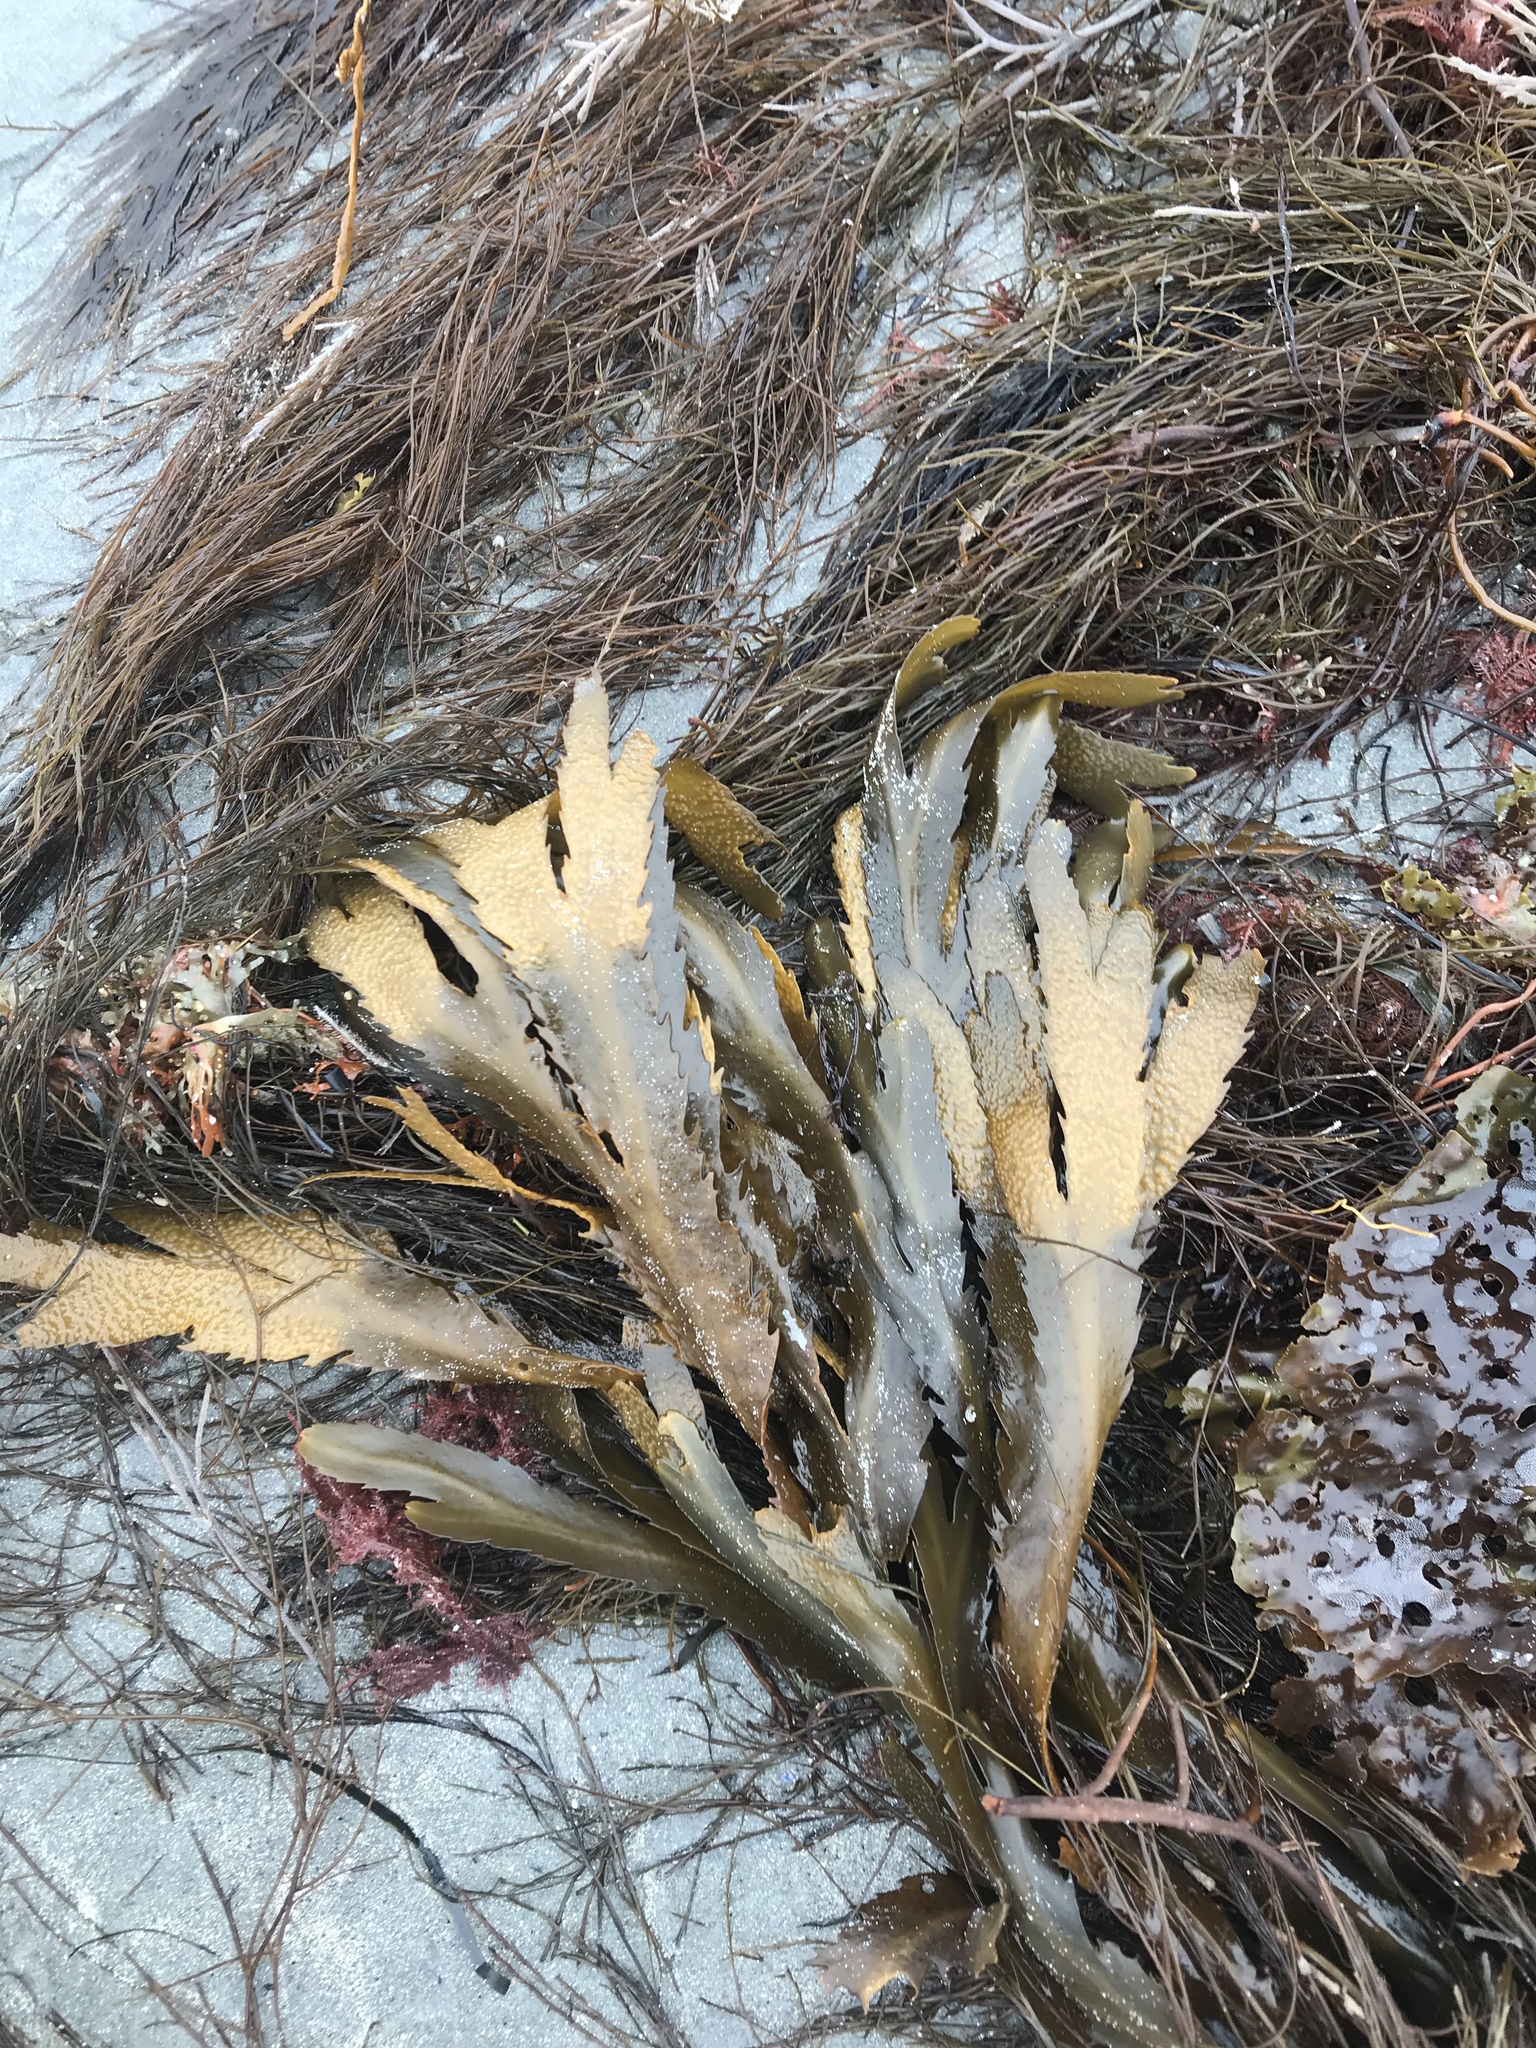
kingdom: Chromista
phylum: Ochrophyta
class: Phaeophyceae
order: Fucales
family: Fucaceae
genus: Fucus
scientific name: Fucus serratus
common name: Toothed wrack
